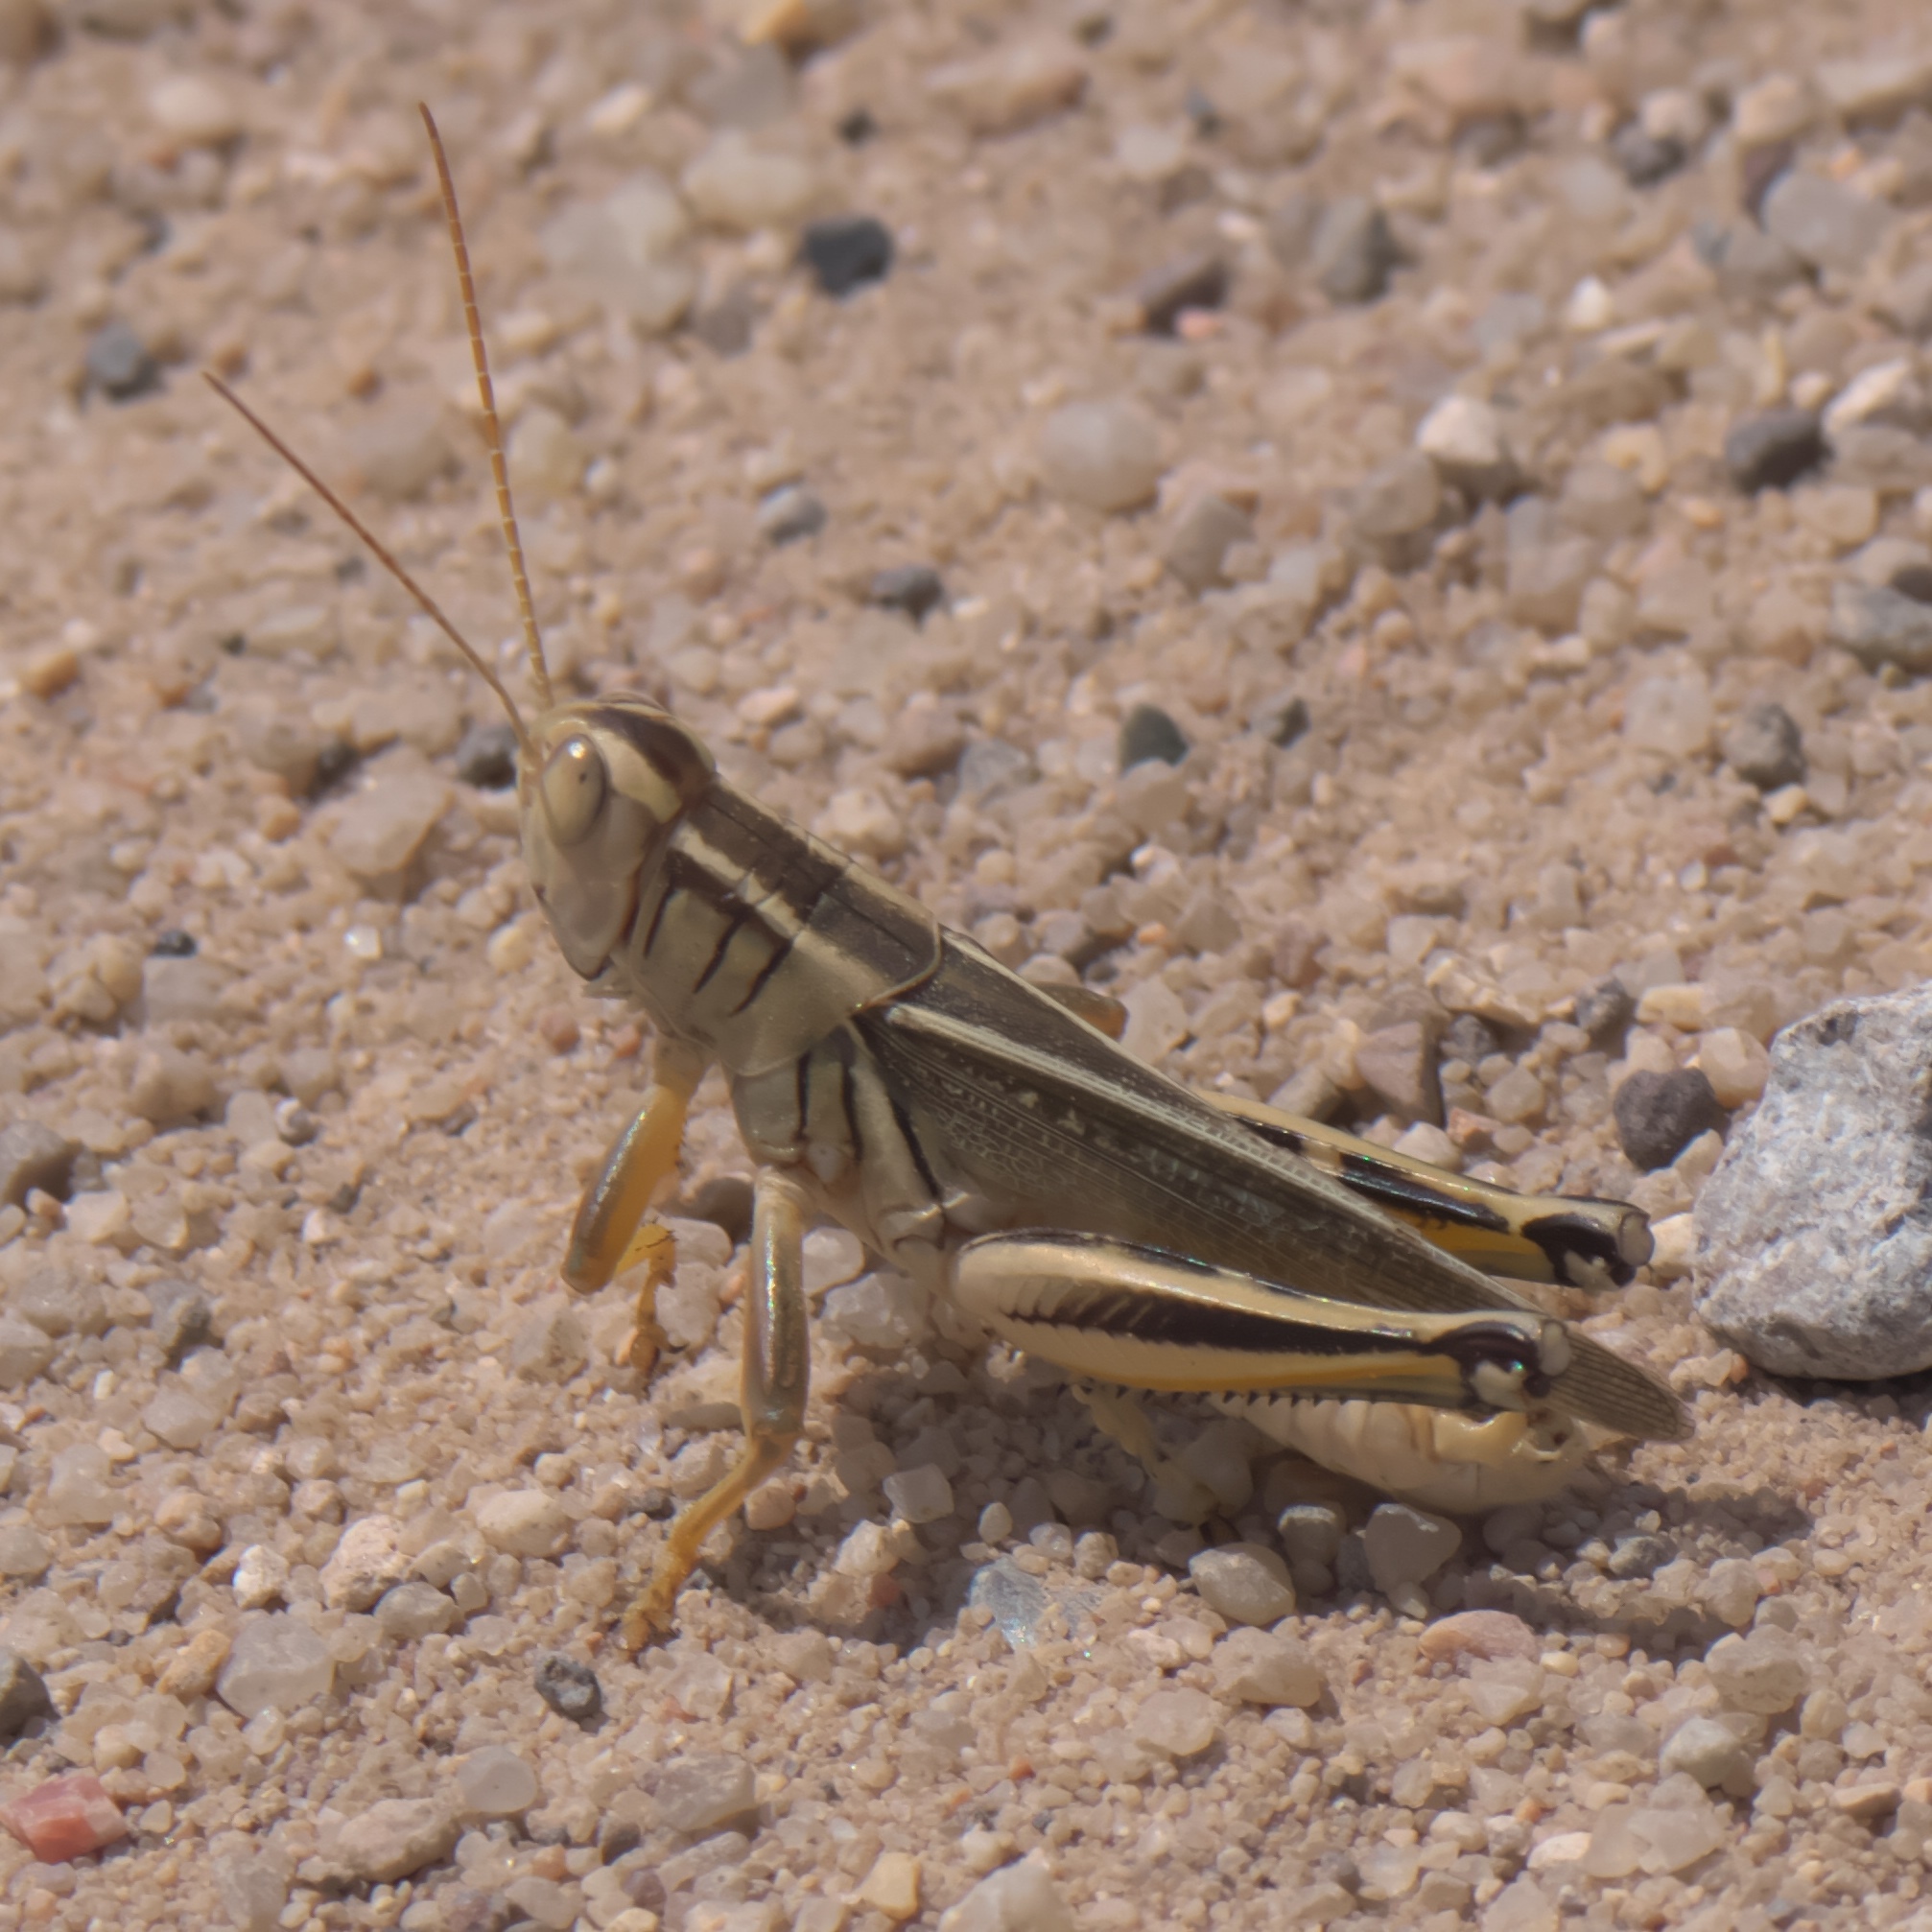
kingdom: Animalia
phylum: Arthropoda
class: Insecta
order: Orthoptera
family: Acrididae
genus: Melanoplus
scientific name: Melanoplus bivittatus
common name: Two-striped grasshopper
